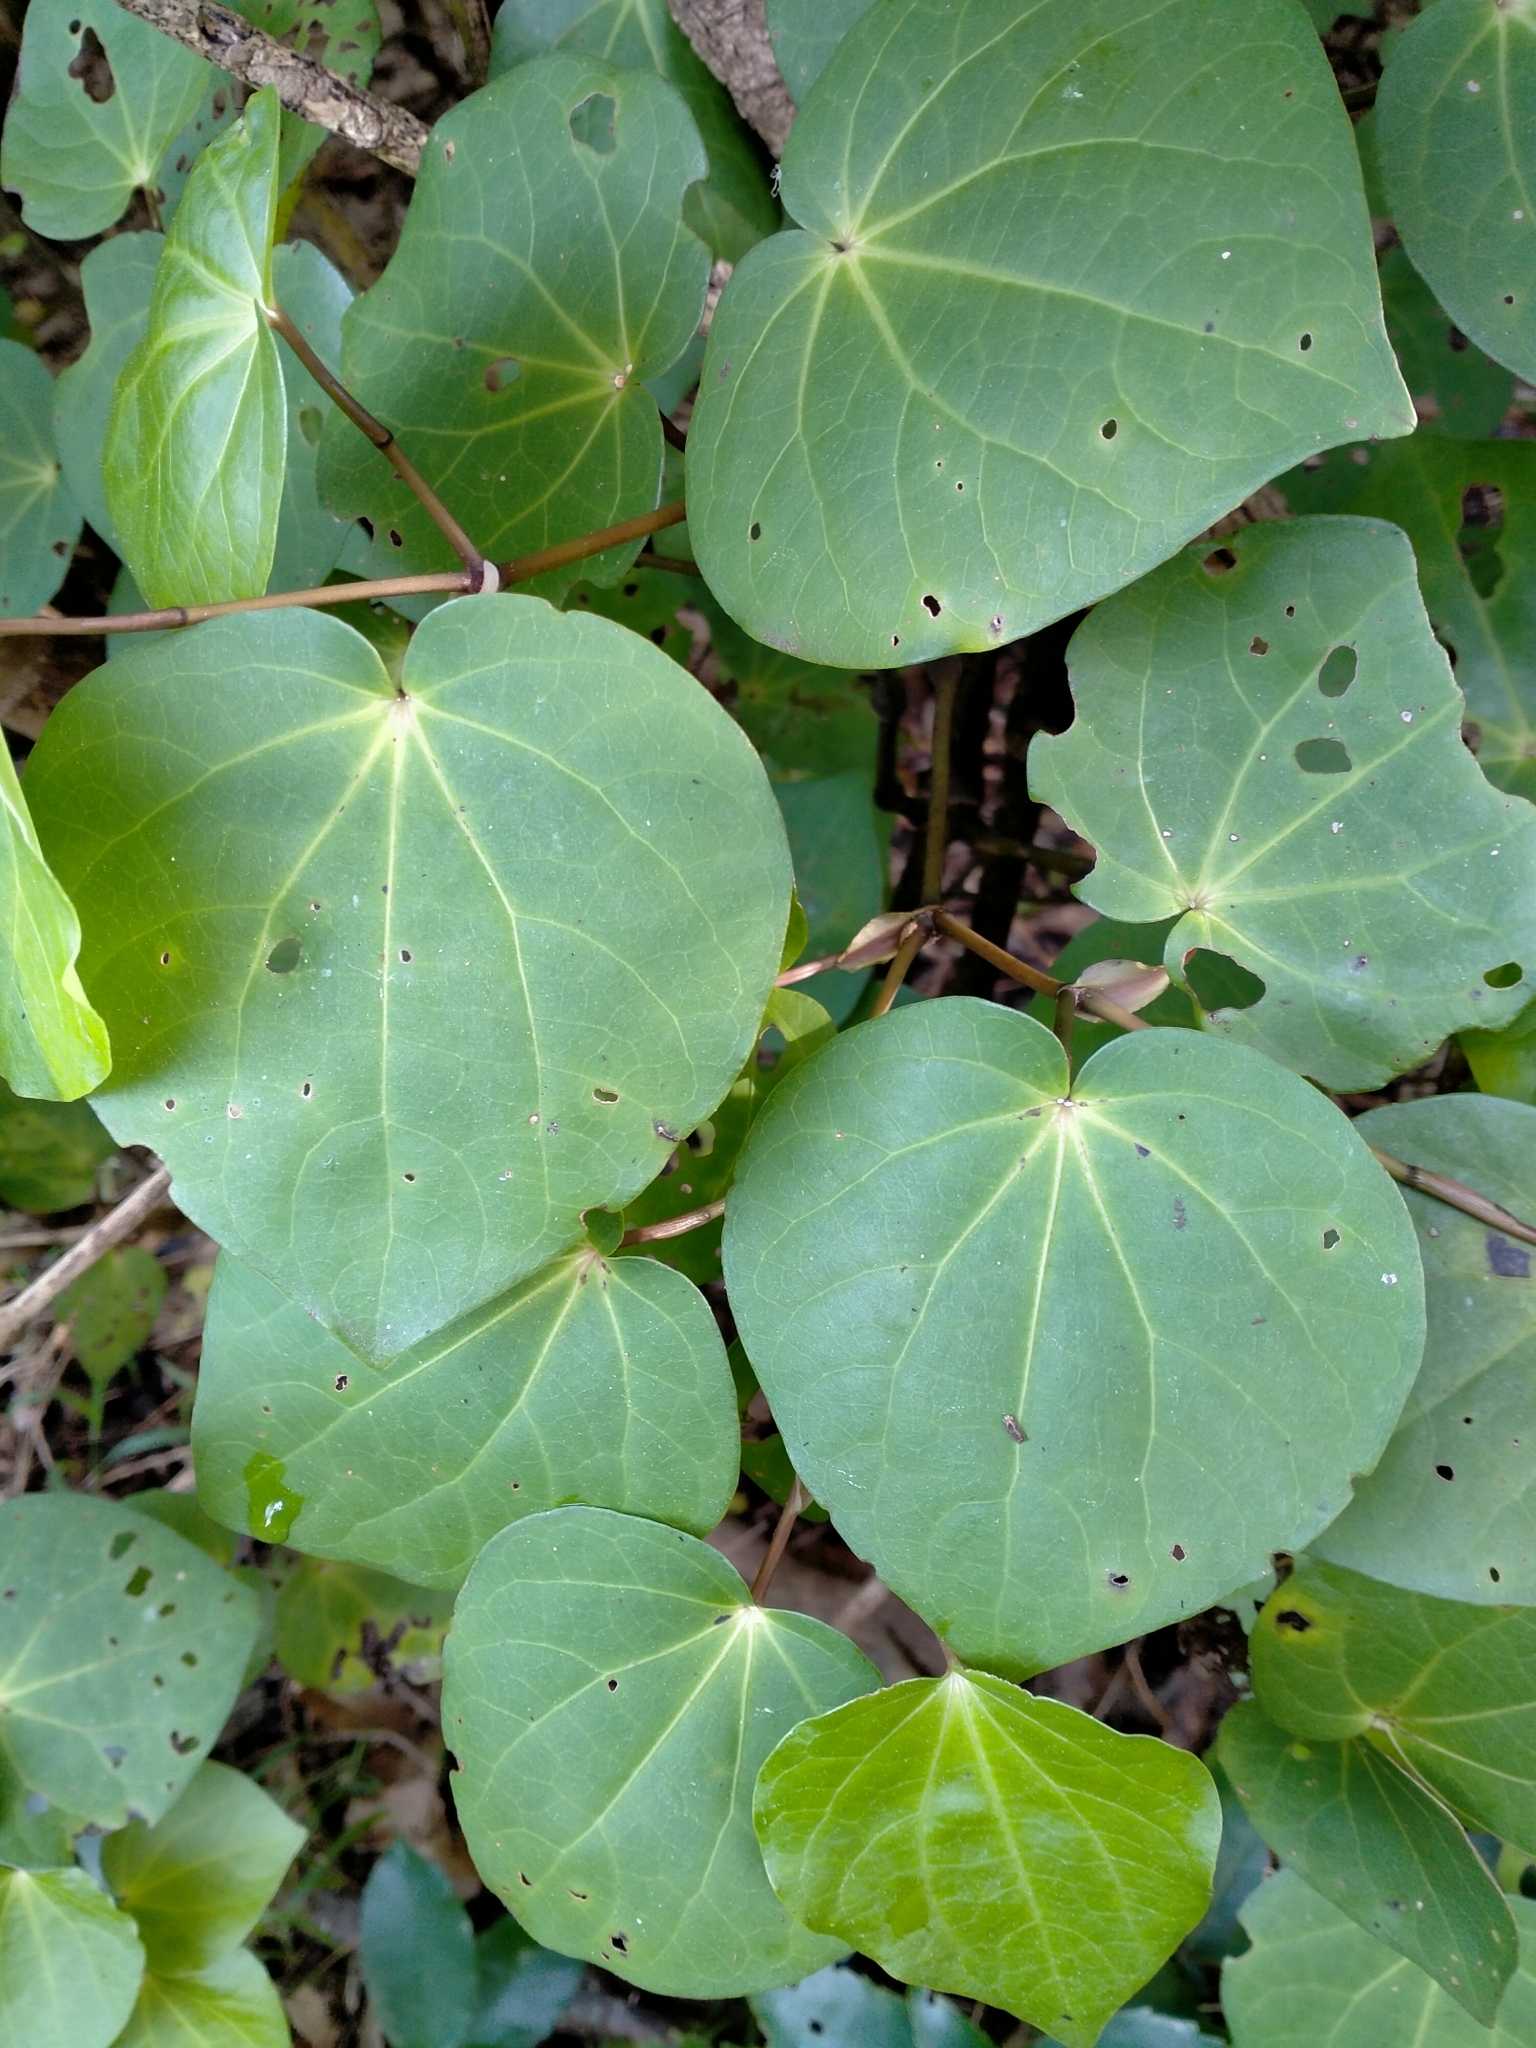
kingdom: Plantae
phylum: Tracheophyta
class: Magnoliopsida
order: Piperales
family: Piperaceae
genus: Macropiper
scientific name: Macropiper excelsum
